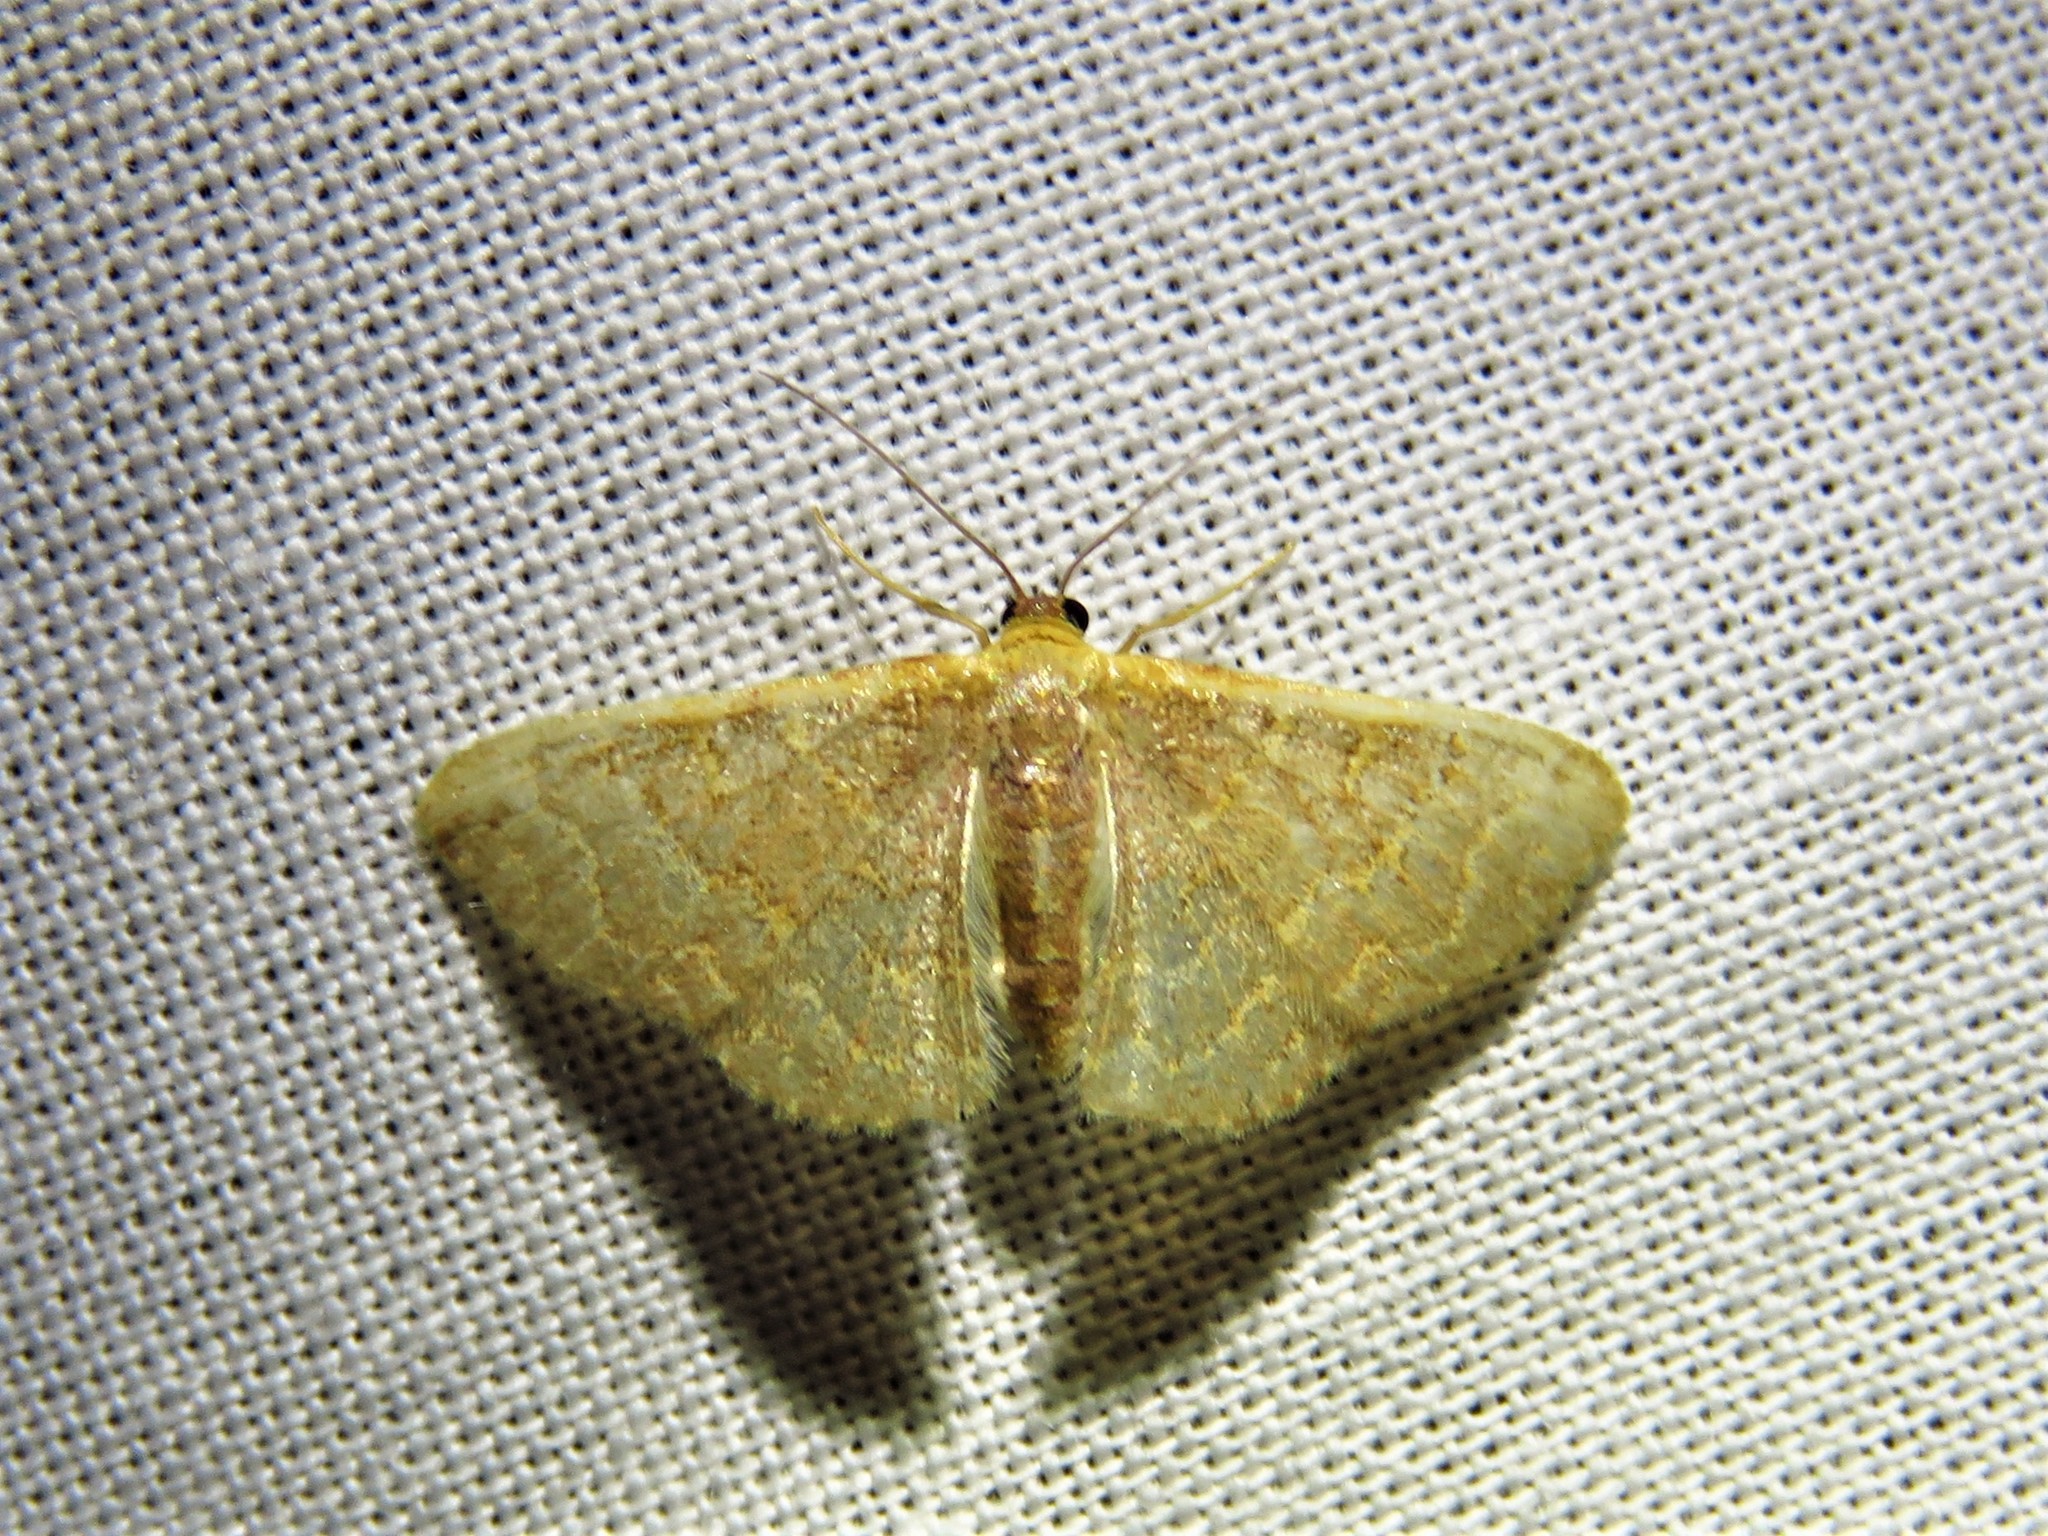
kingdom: Animalia
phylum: Arthropoda
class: Insecta
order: Lepidoptera
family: Geometridae
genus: Leptostales
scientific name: Leptostales pannaria
